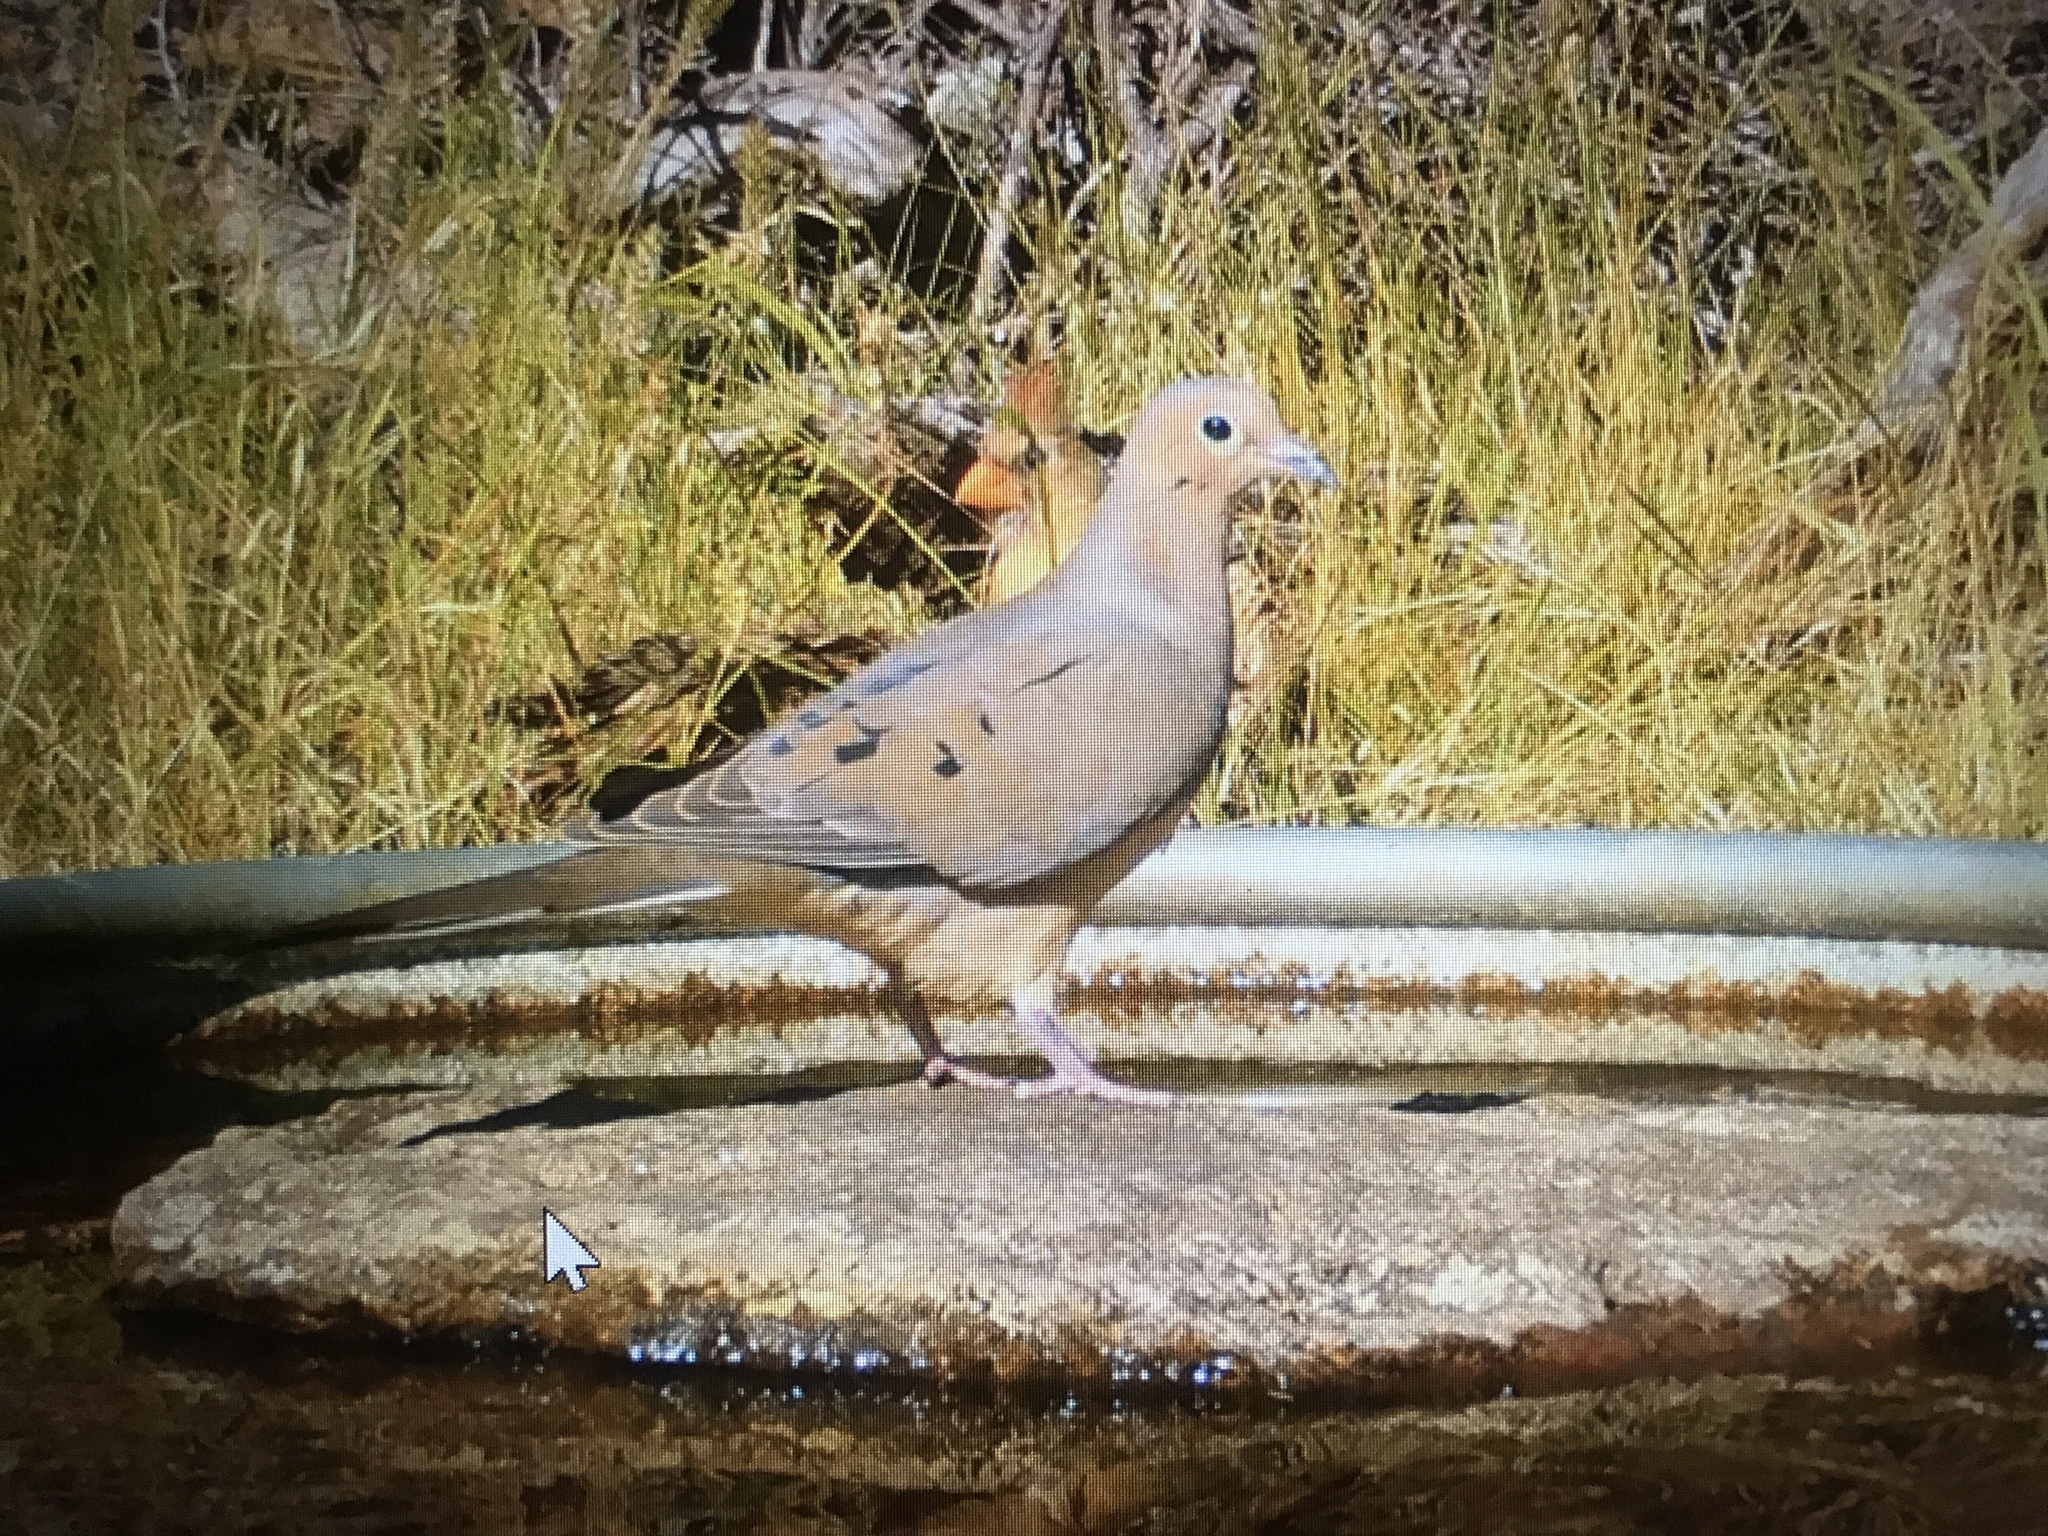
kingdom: Animalia
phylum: Chordata
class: Aves
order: Columbiformes
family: Columbidae
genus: Zenaida
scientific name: Zenaida macroura
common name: Mourning dove
